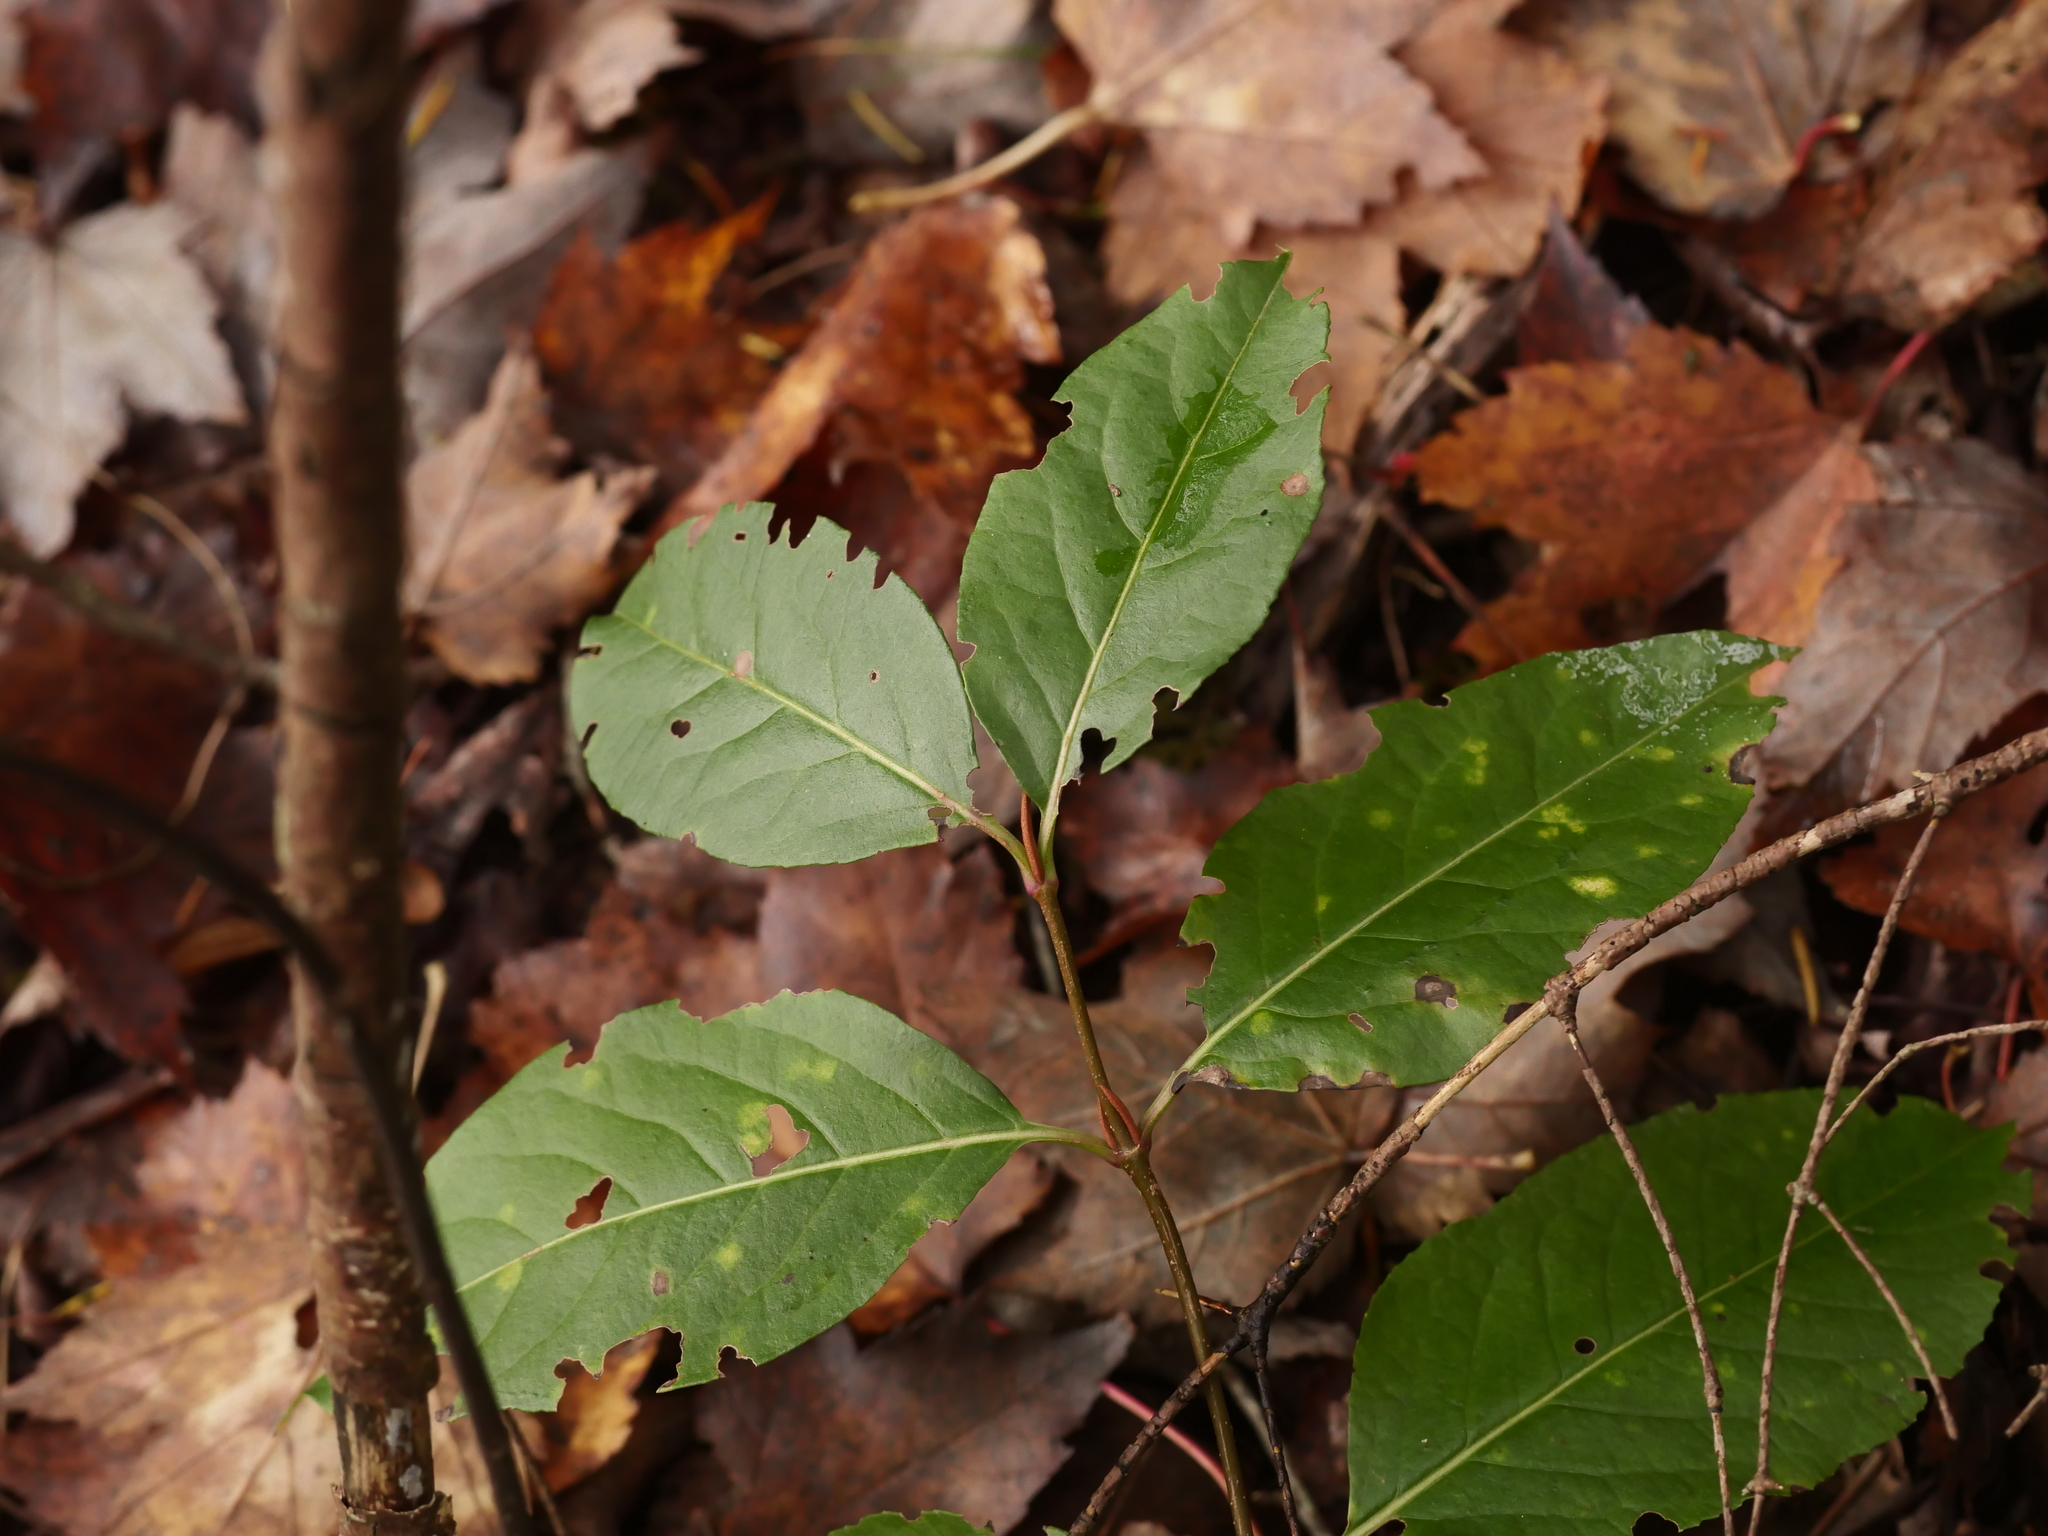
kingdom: Plantae
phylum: Tracheophyta
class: Magnoliopsida
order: Dipsacales
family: Viburnaceae
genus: Viburnum
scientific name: Viburnum cassinoides
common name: Swamp haw
